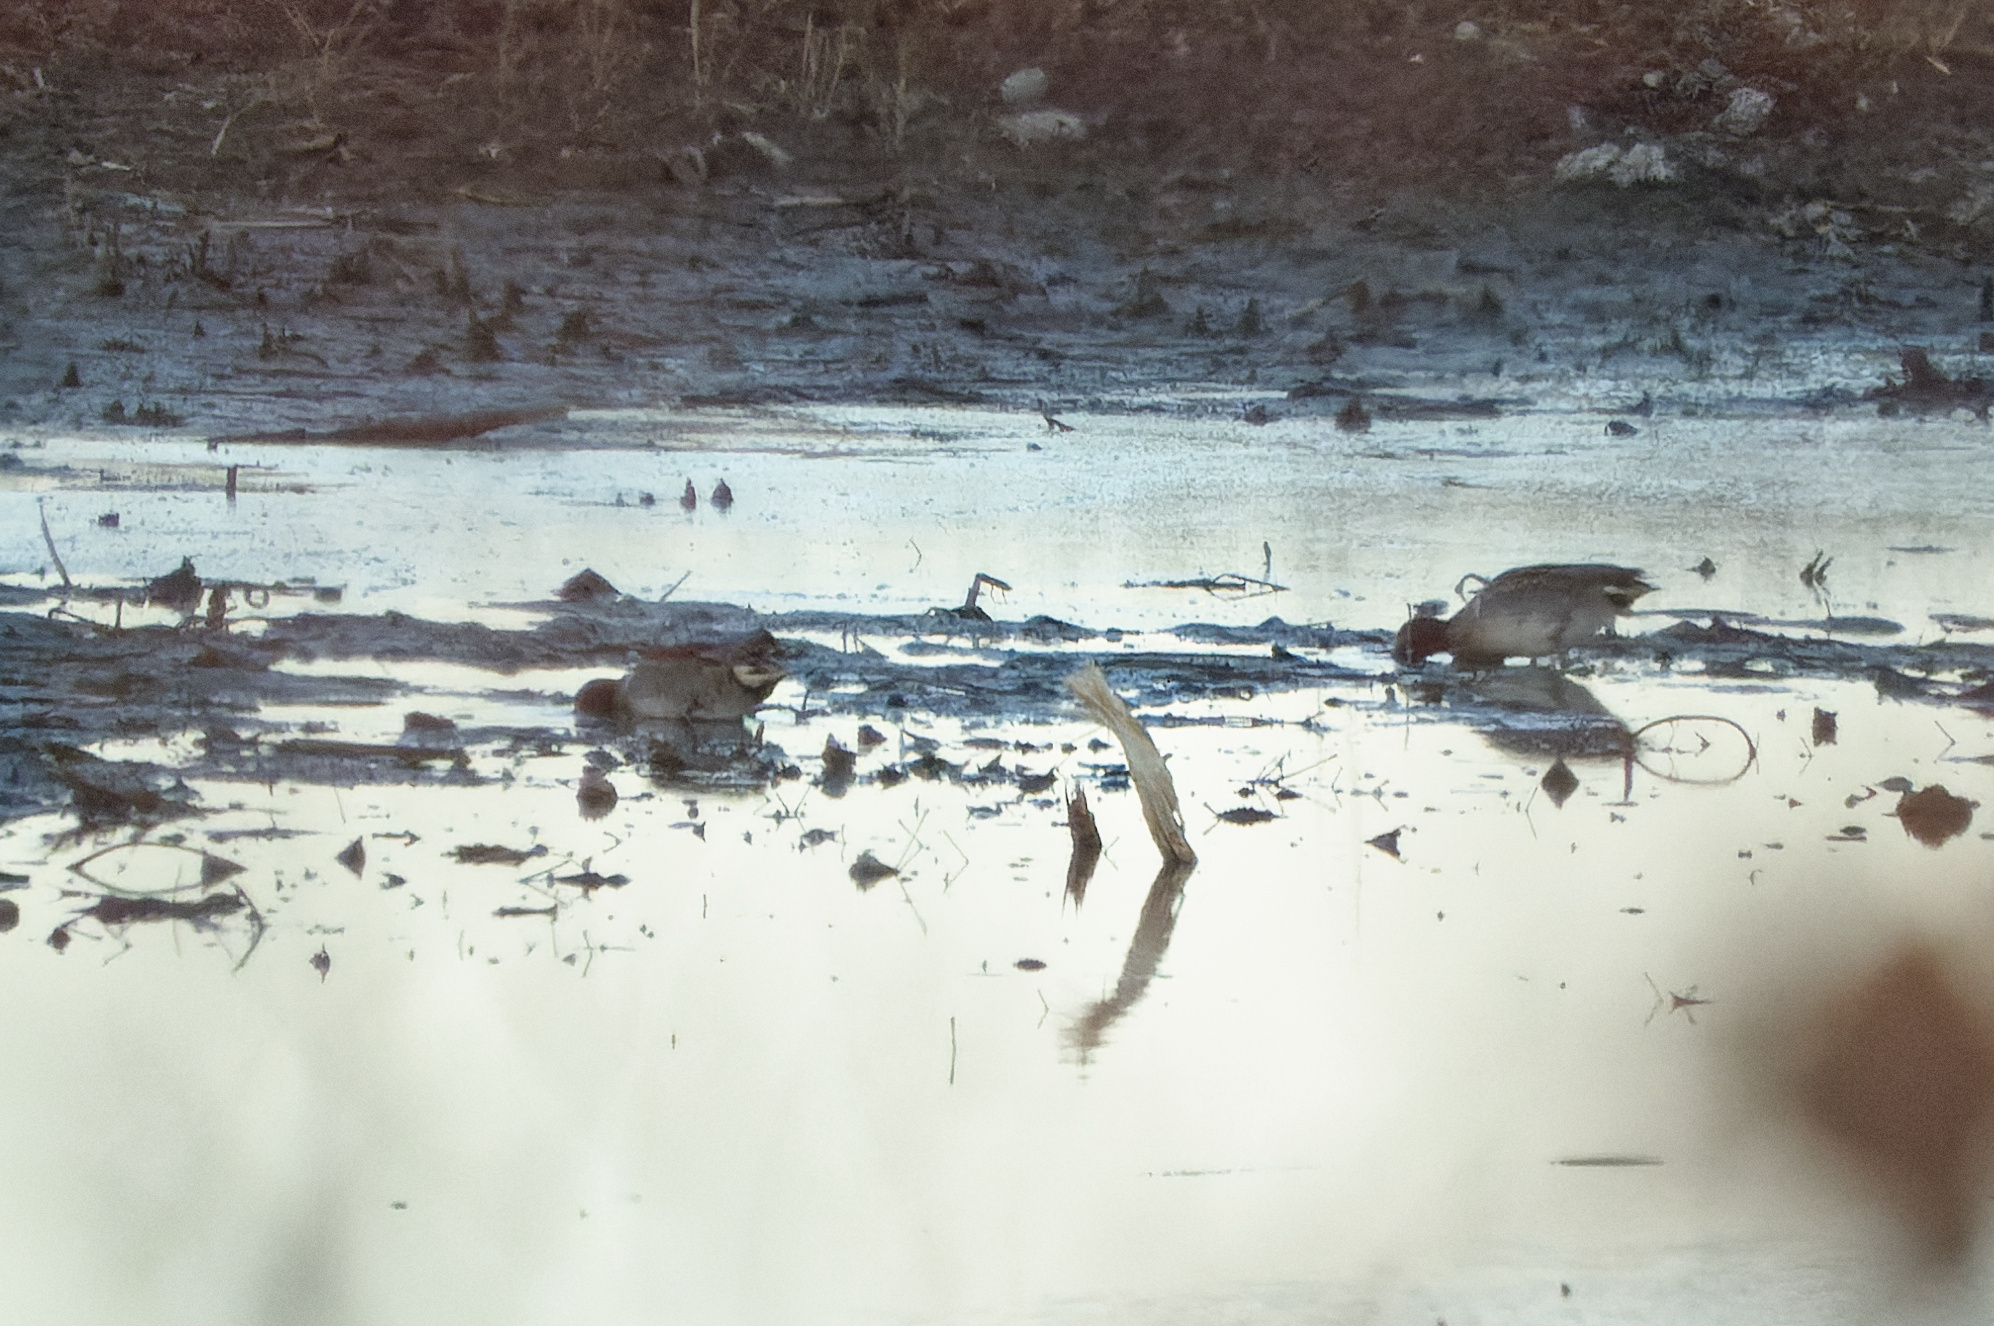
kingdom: Animalia
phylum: Chordata
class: Aves
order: Anseriformes
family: Anatidae
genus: Anas
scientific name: Anas carolinensis
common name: Green-winged teal
